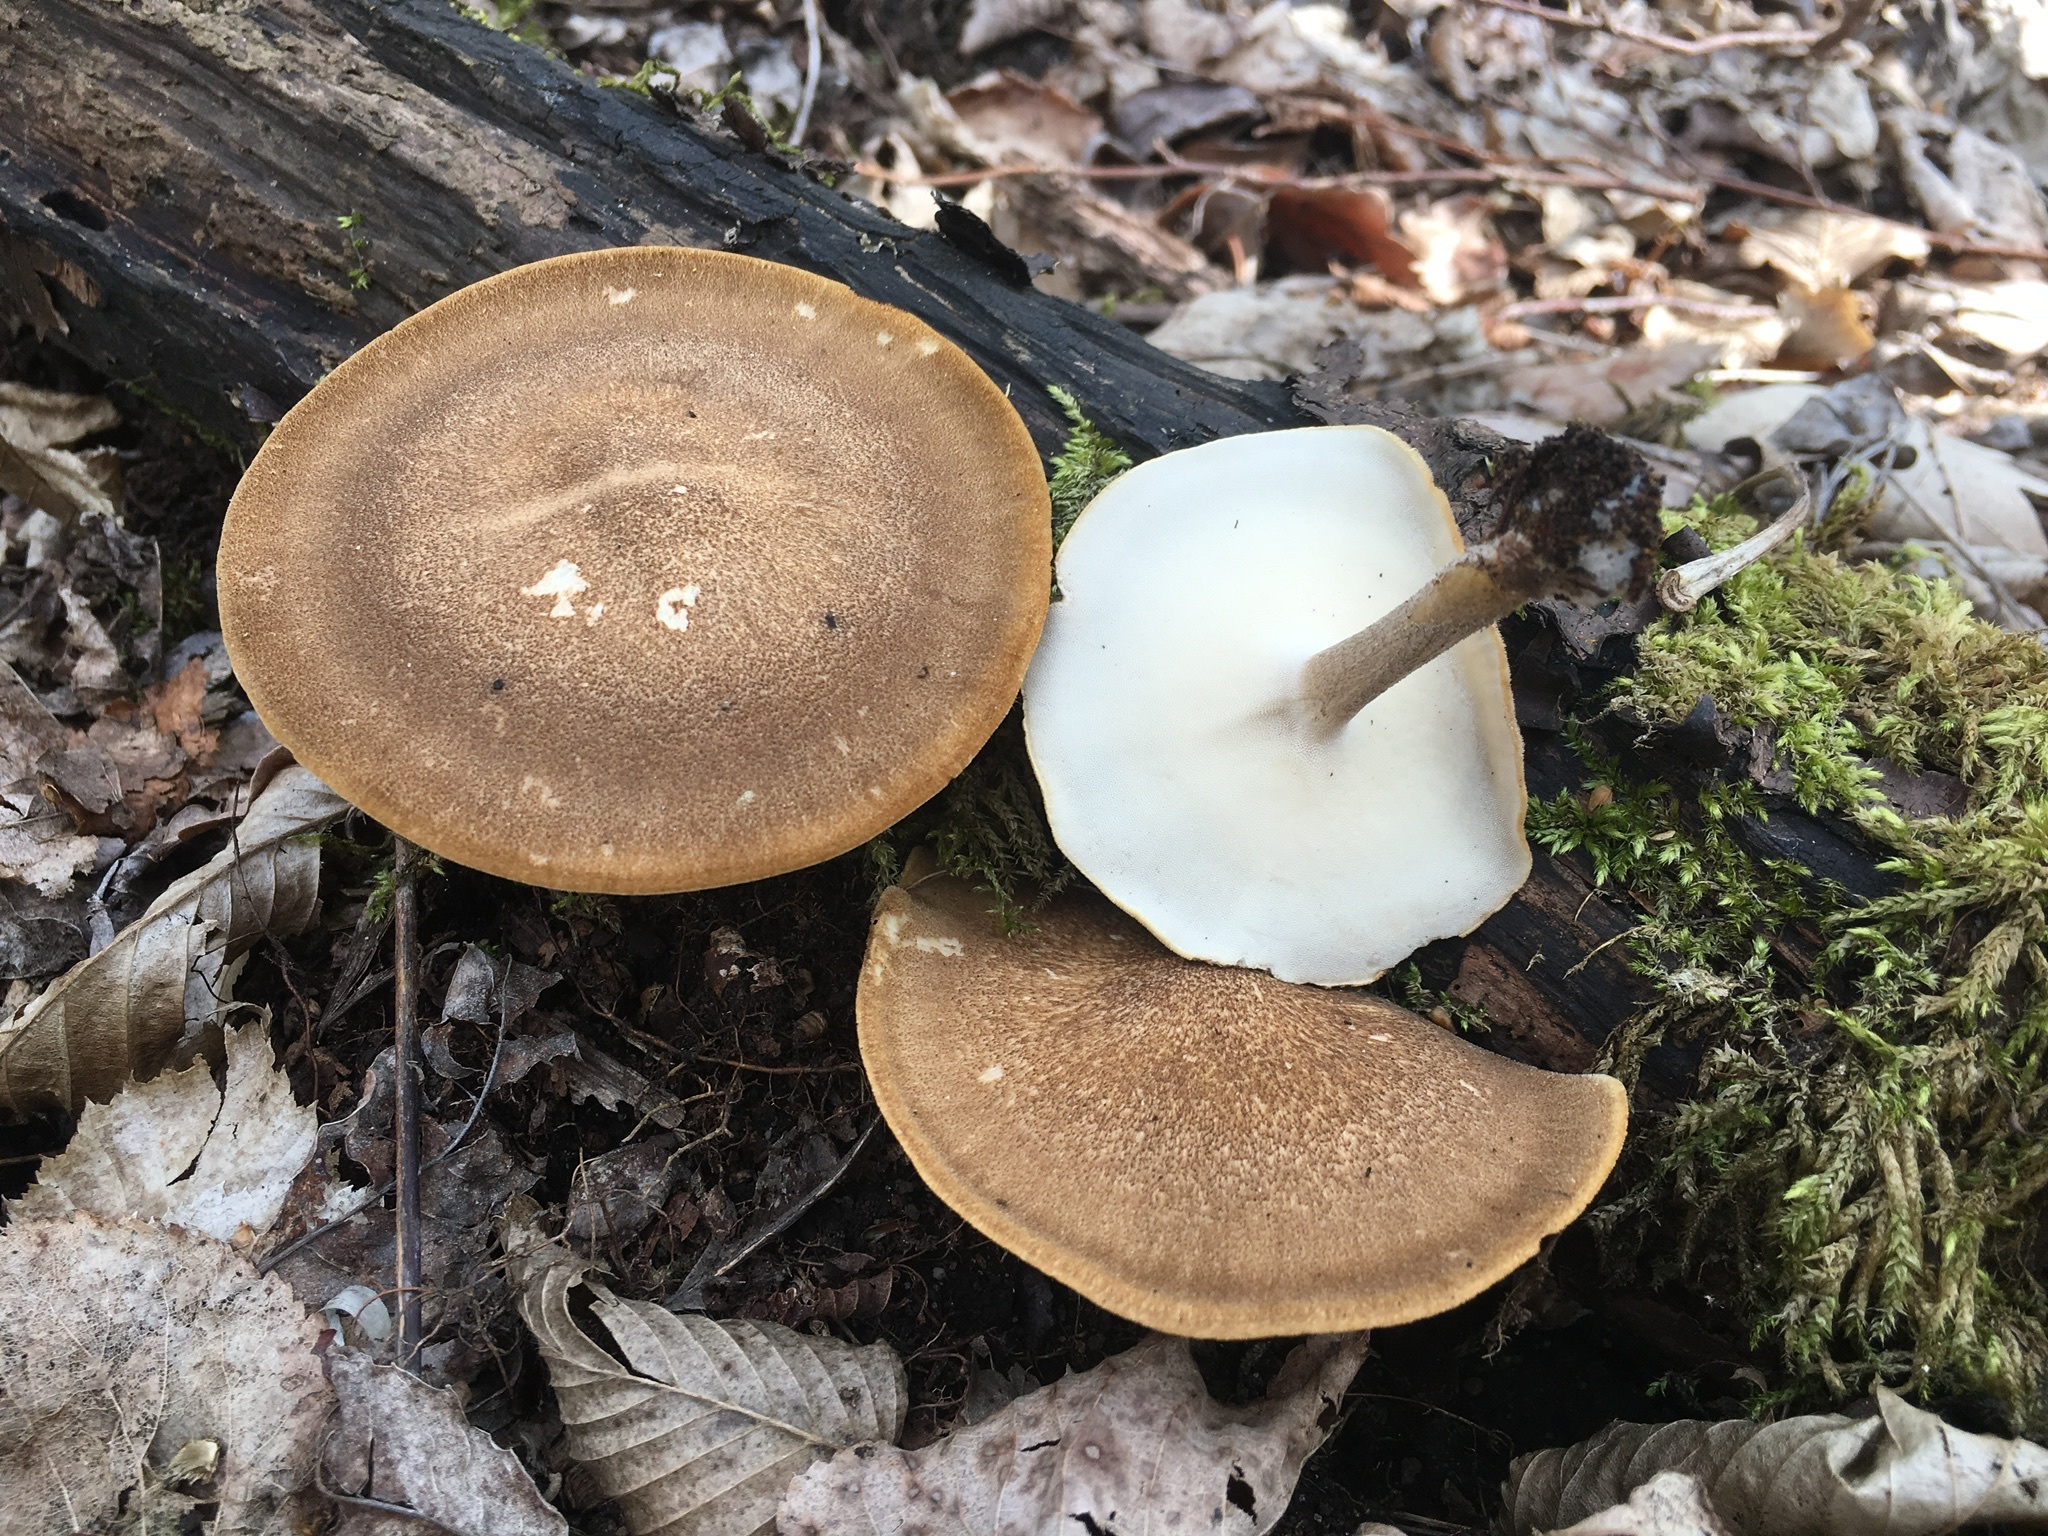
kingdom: Fungi
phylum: Basidiomycota
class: Agaricomycetes
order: Polyporales
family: Polyporaceae
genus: Lentinus
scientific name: Lentinus substrictus
